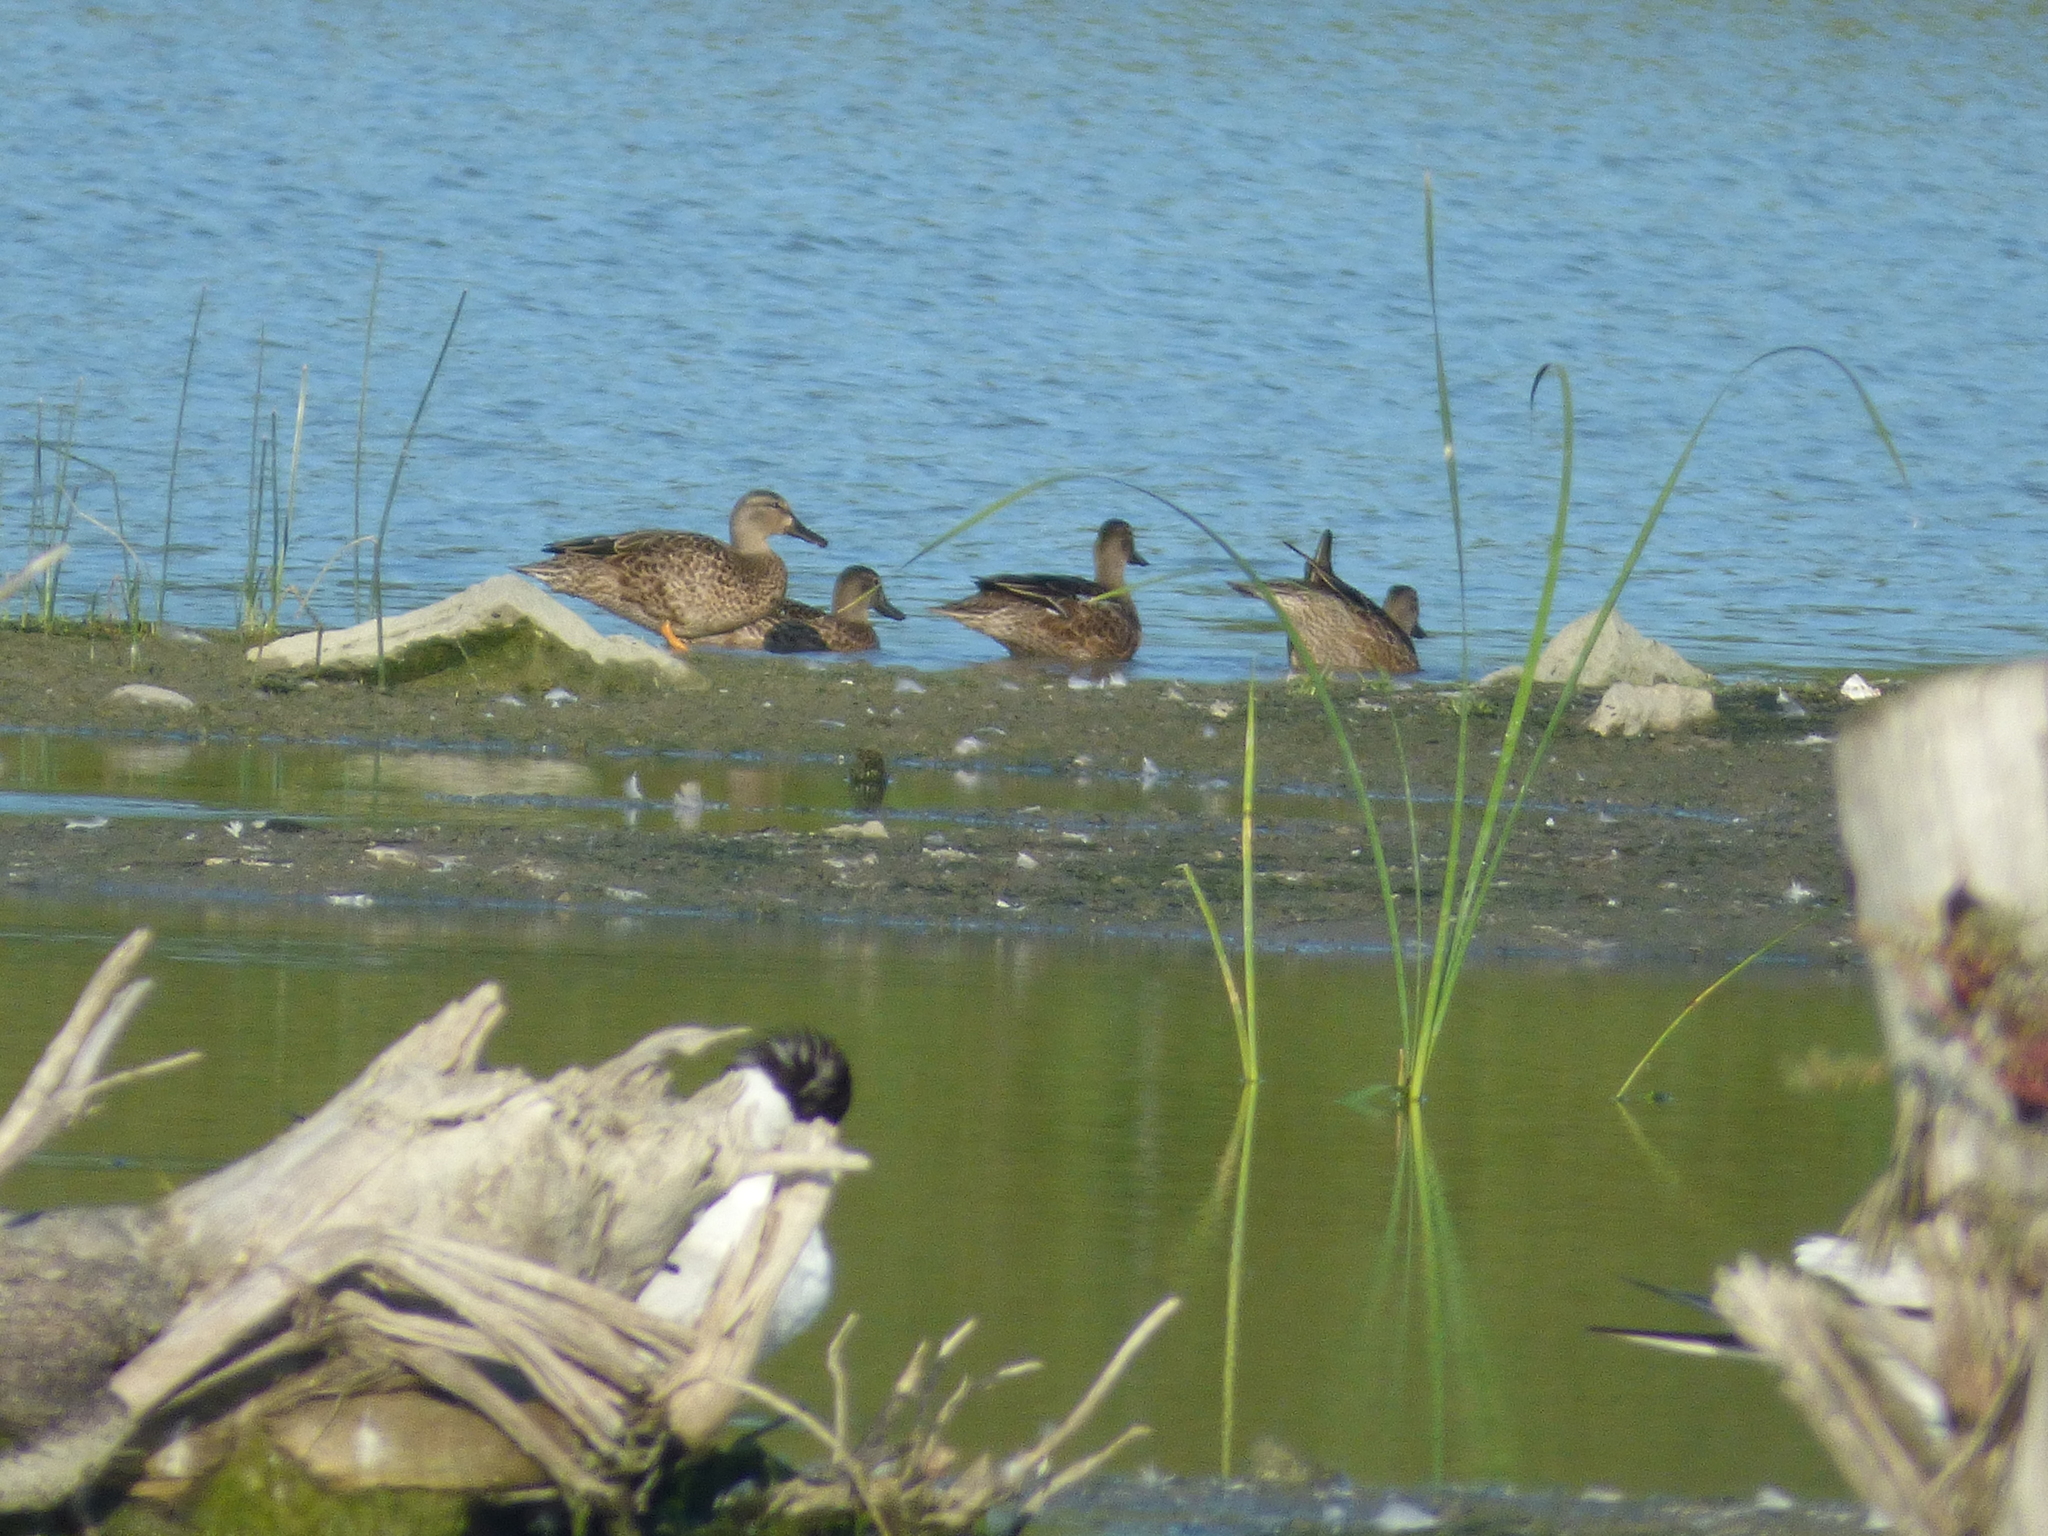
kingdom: Animalia
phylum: Chordata
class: Aves
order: Anseriformes
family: Anatidae
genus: Spatula
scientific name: Spatula discors
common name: Blue-winged teal
